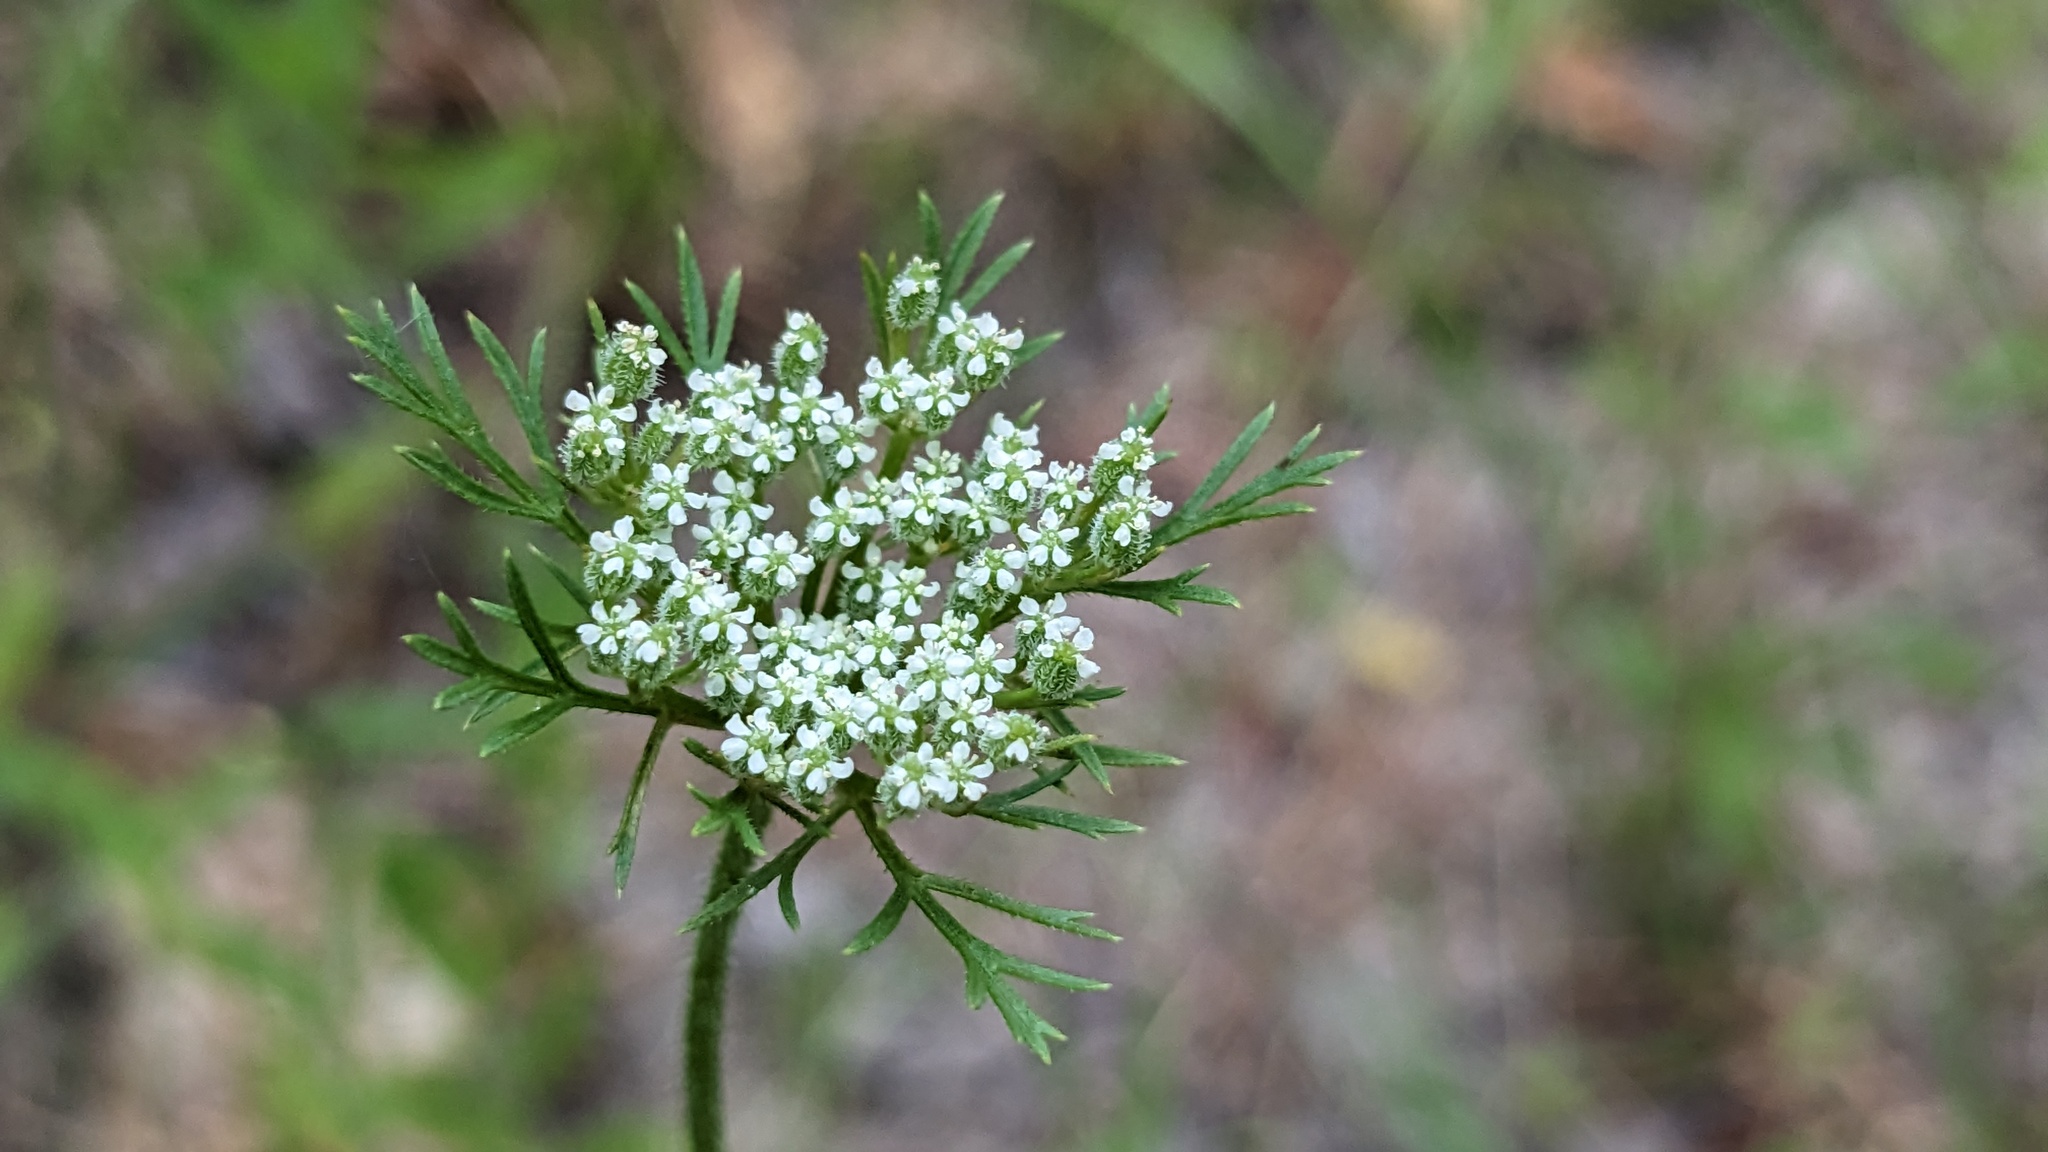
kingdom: Plantae
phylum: Tracheophyta
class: Magnoliopsida
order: Apiales
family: Apiaceae
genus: Daucus
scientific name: Daucus pusillus
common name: Southwest wild carrot
